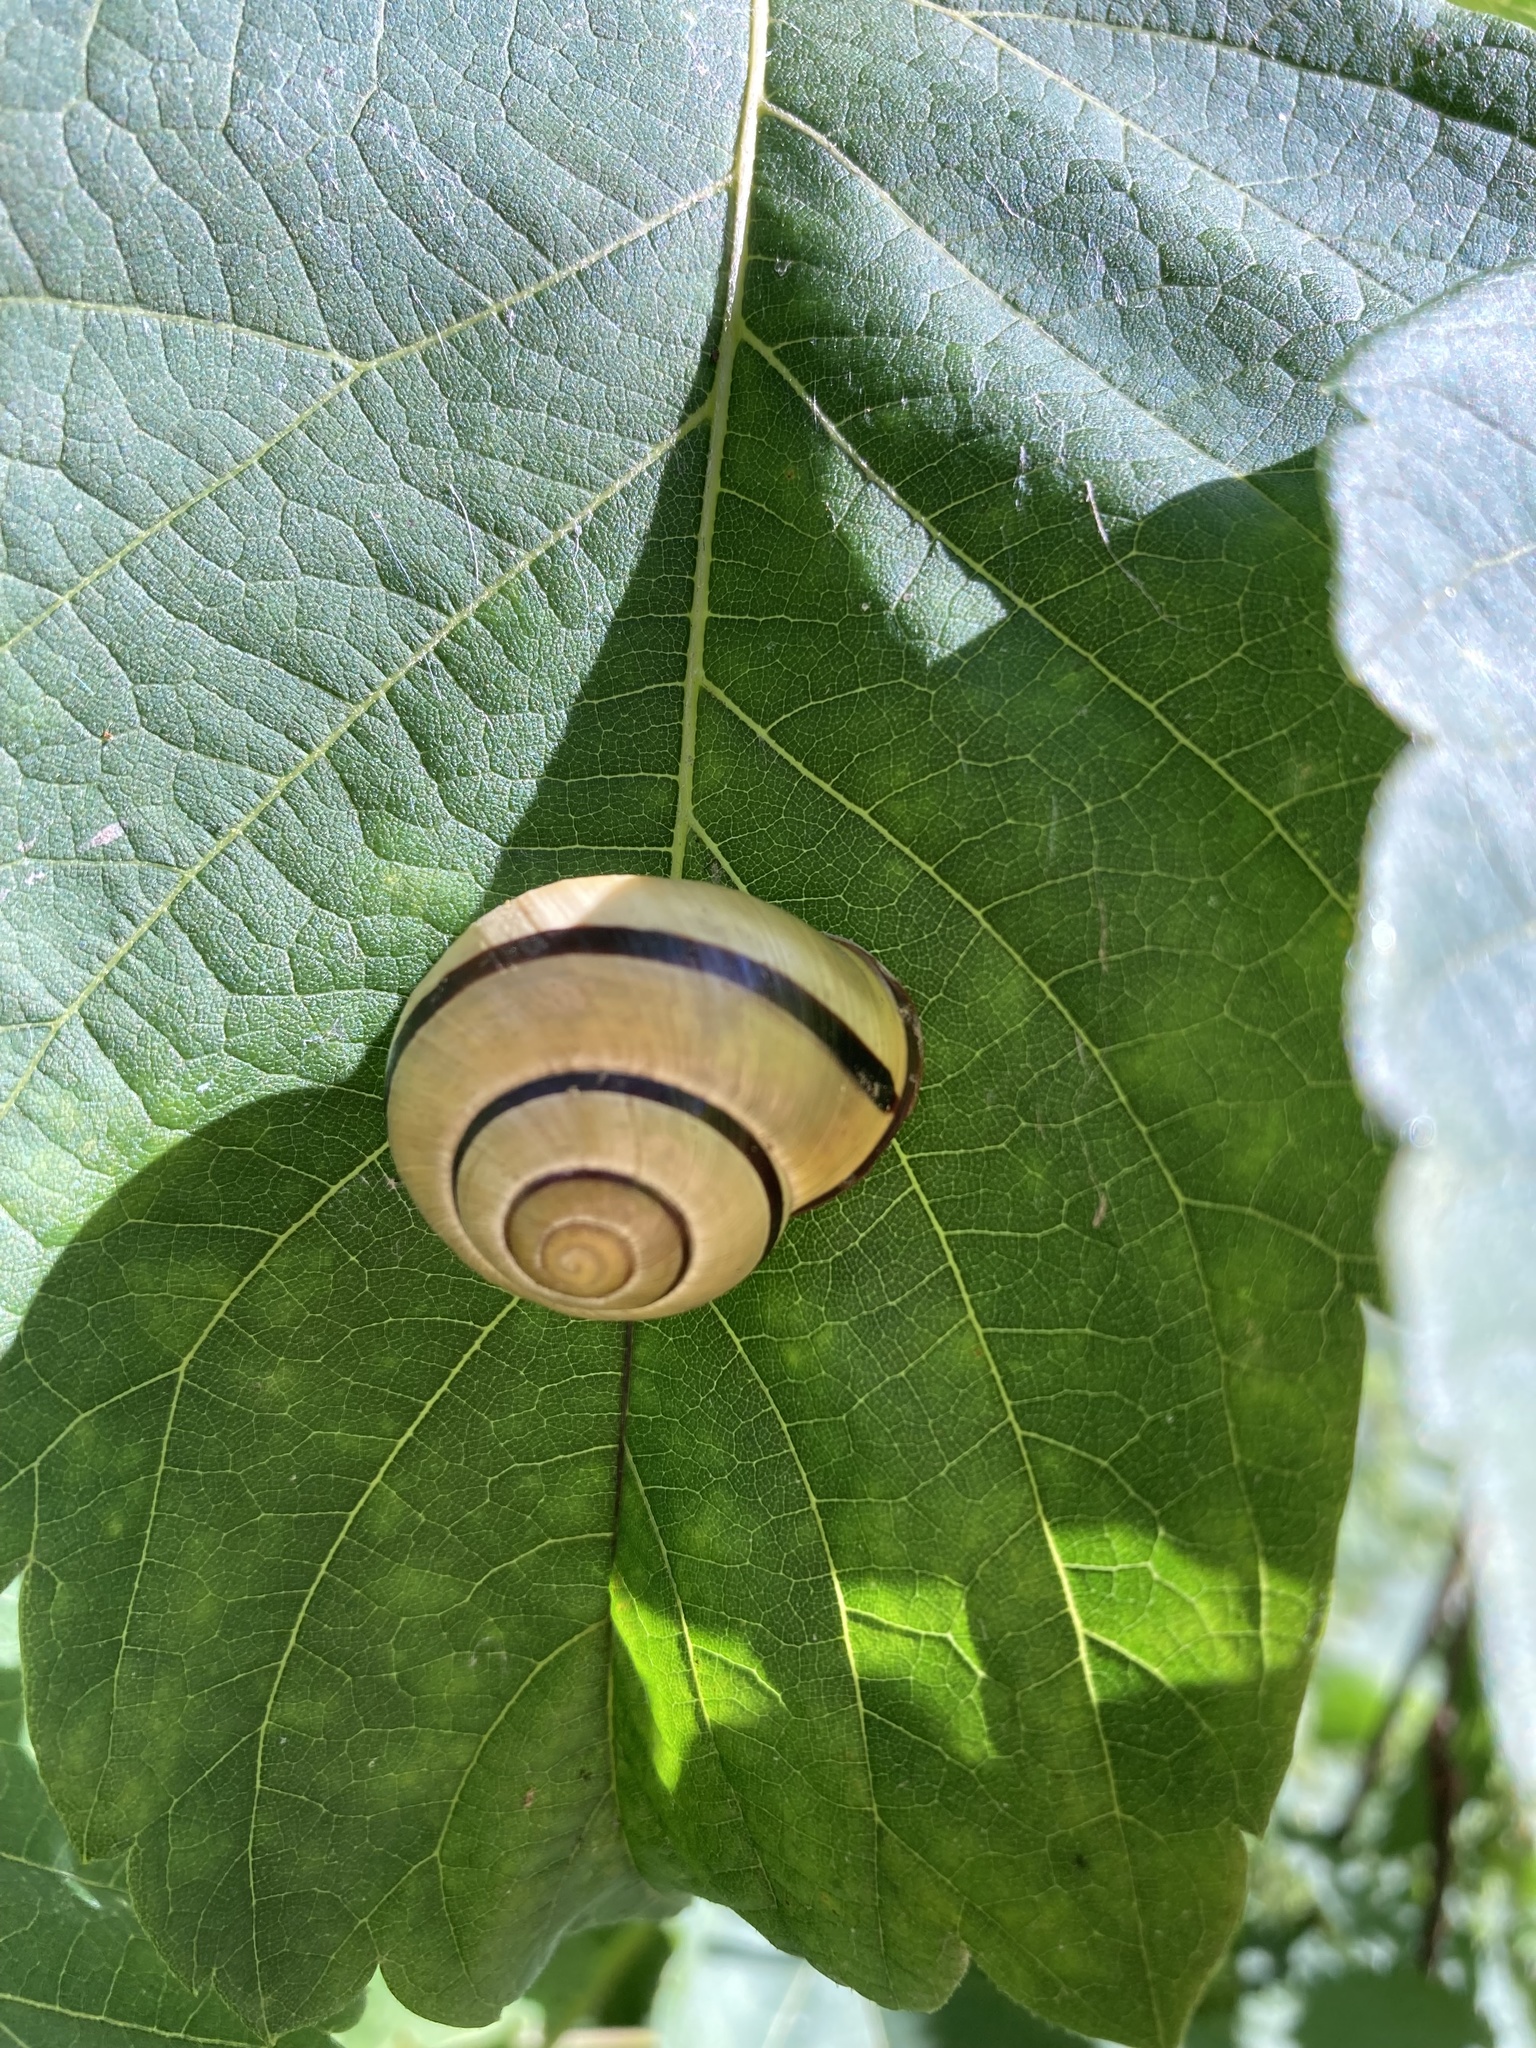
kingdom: Animalia
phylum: Mollusca
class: Gastropoda
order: Stylommatophora
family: Helicidae
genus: Cepaea
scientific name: Cepaea nemoralis
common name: Grovesnail
